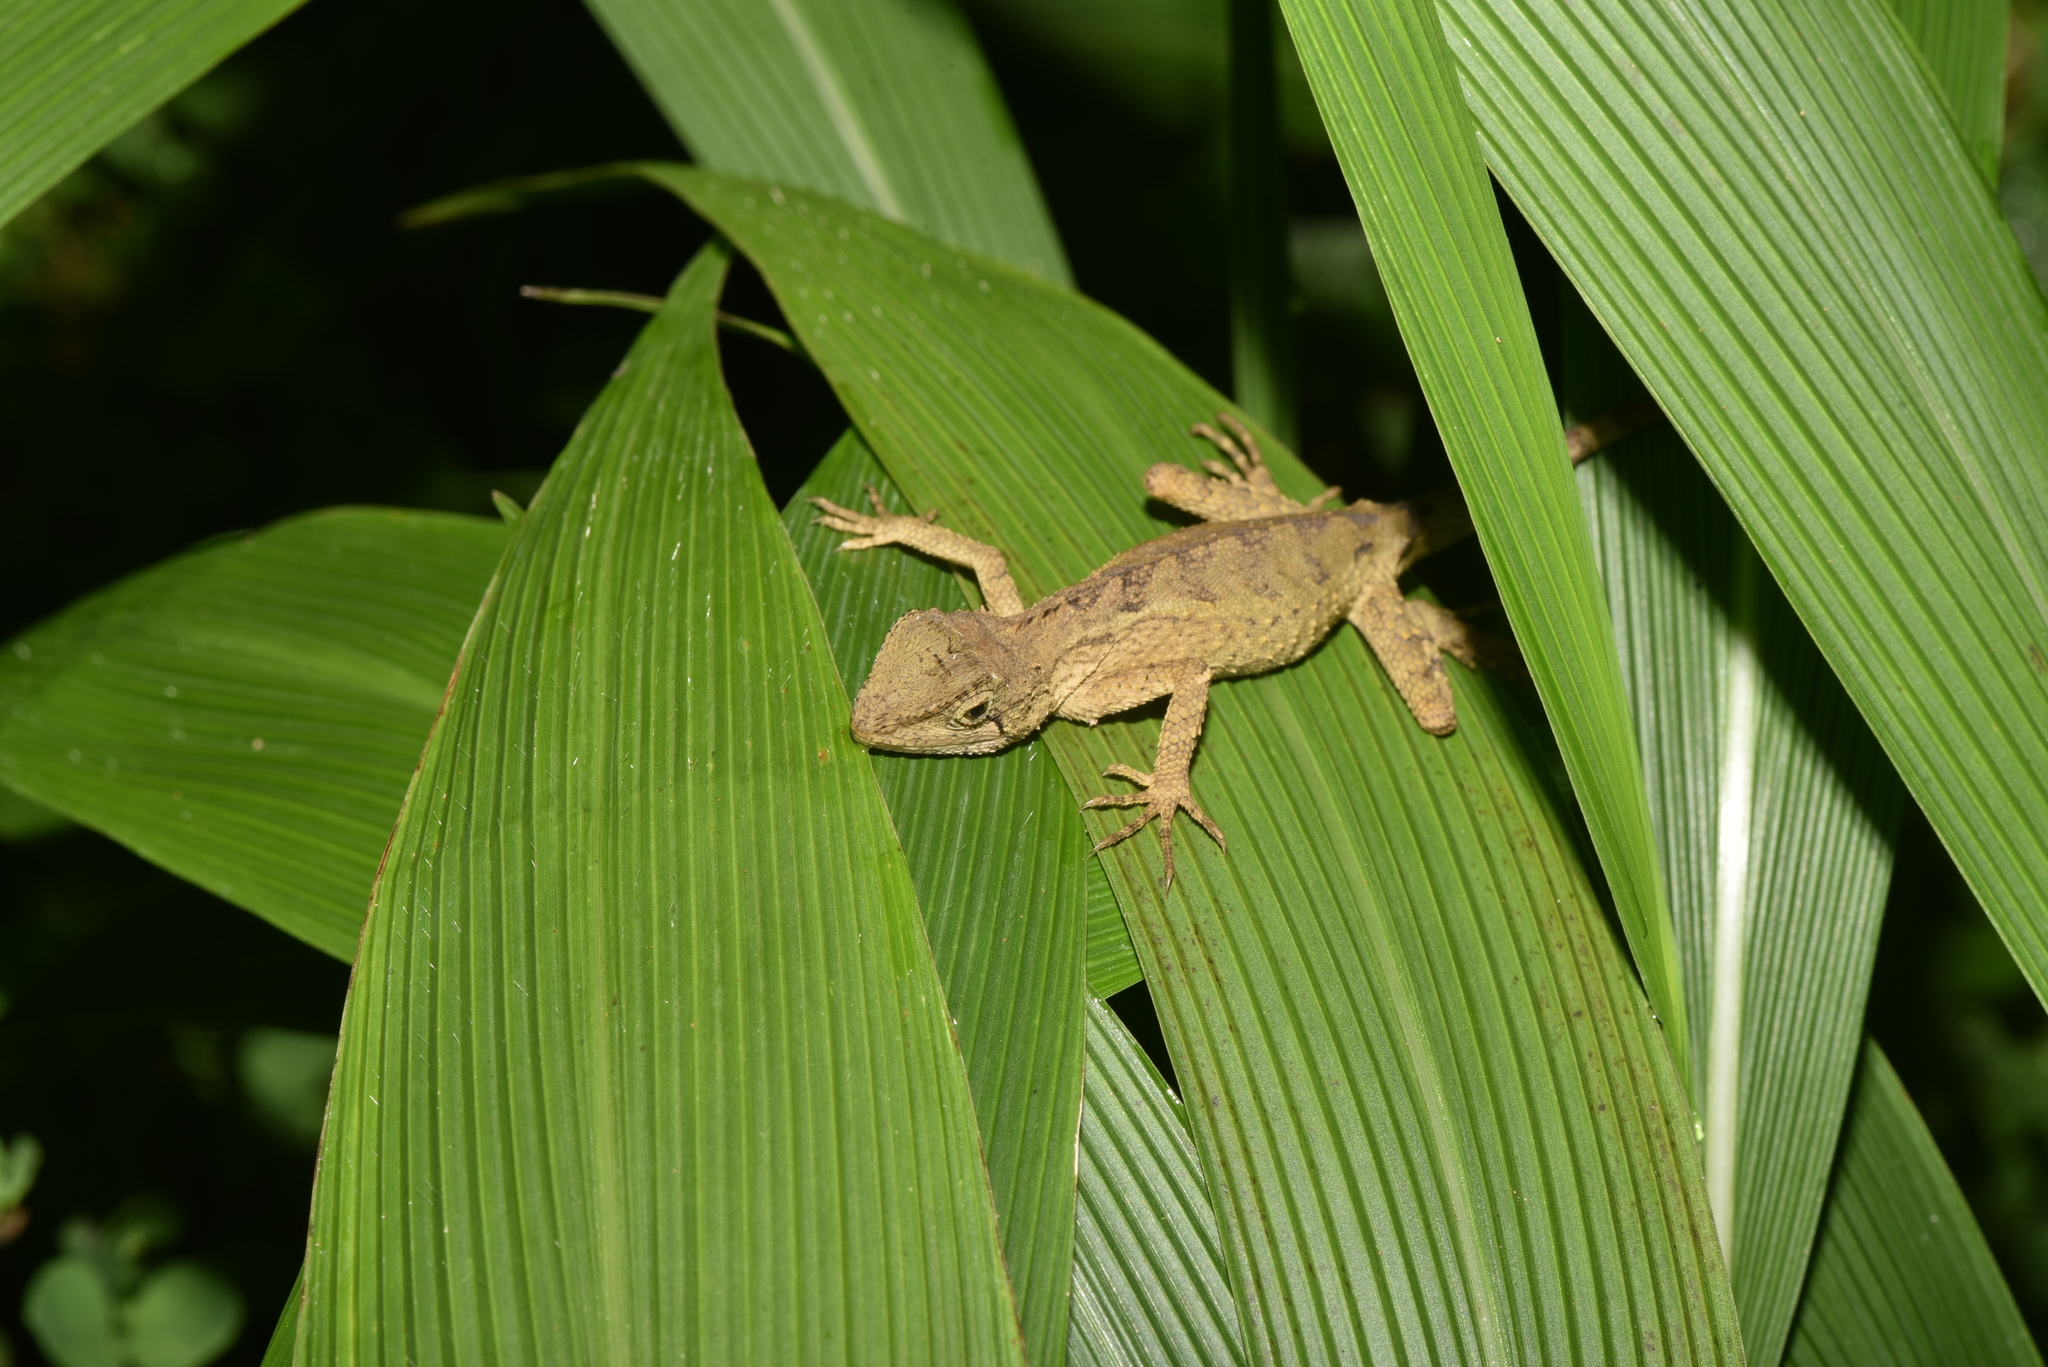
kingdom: Animalia
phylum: Chordata
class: Squamata
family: Agamidae
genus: Diploderma
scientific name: Diploderma swinhonis
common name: Taiwan japalure
